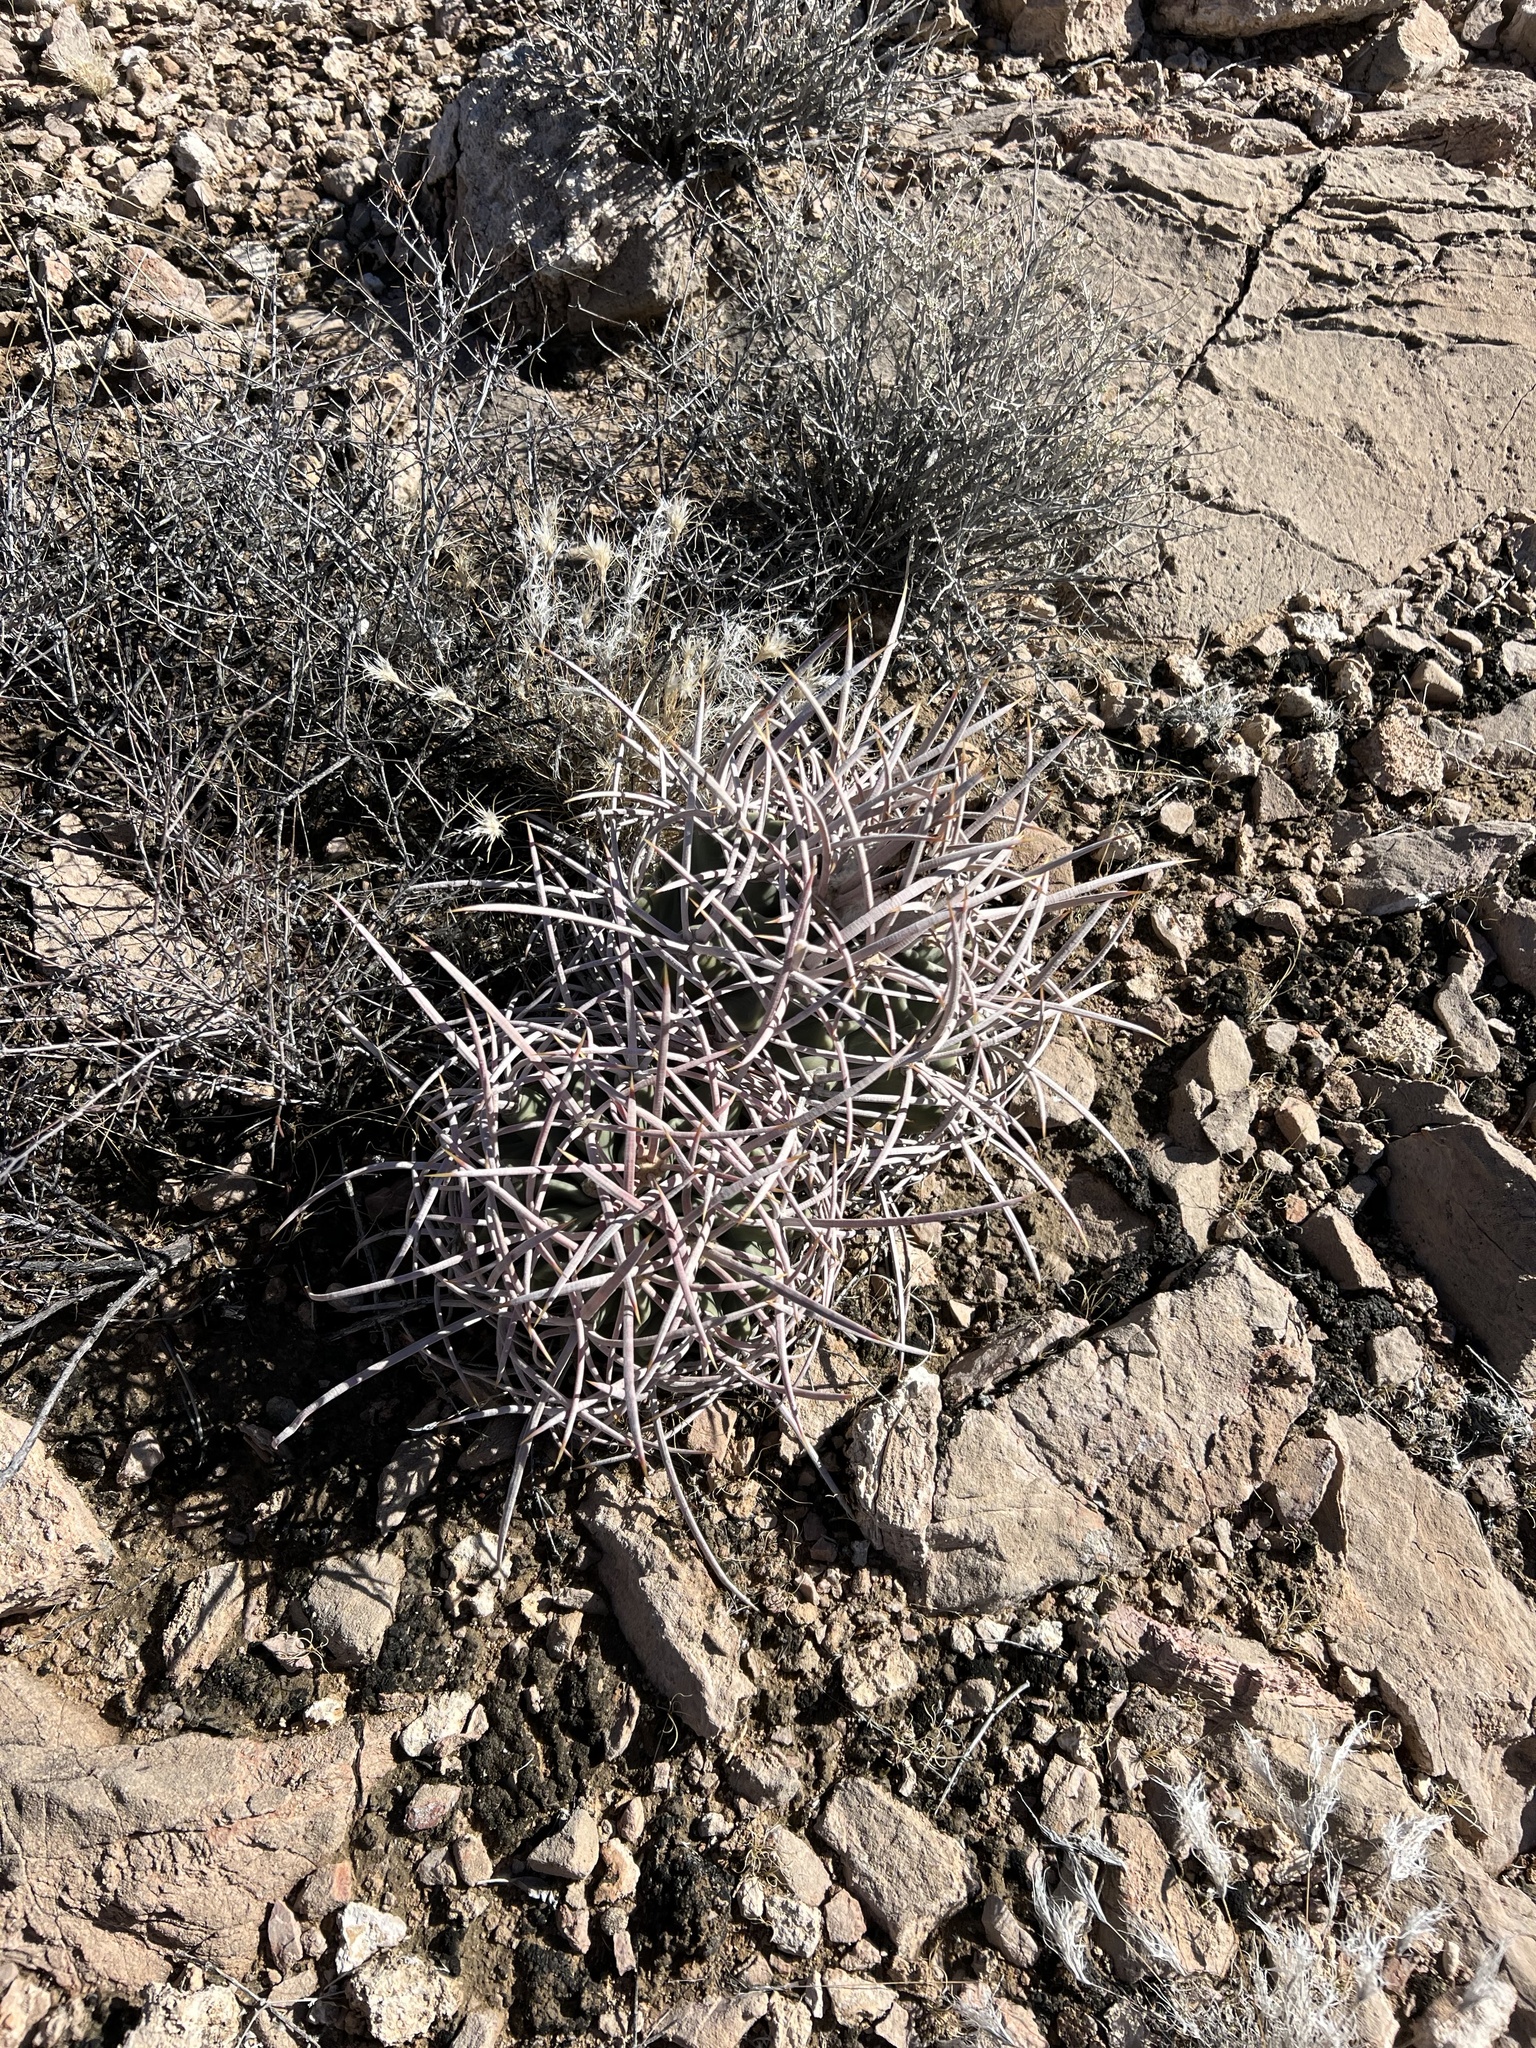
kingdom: Plantae
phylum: Tracheophyta
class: Magnoliopsida
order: Caryophyllales
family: Cactaceae
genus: Echinocactus
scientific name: Echinocactus polycephalus
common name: Cottontop cactus
